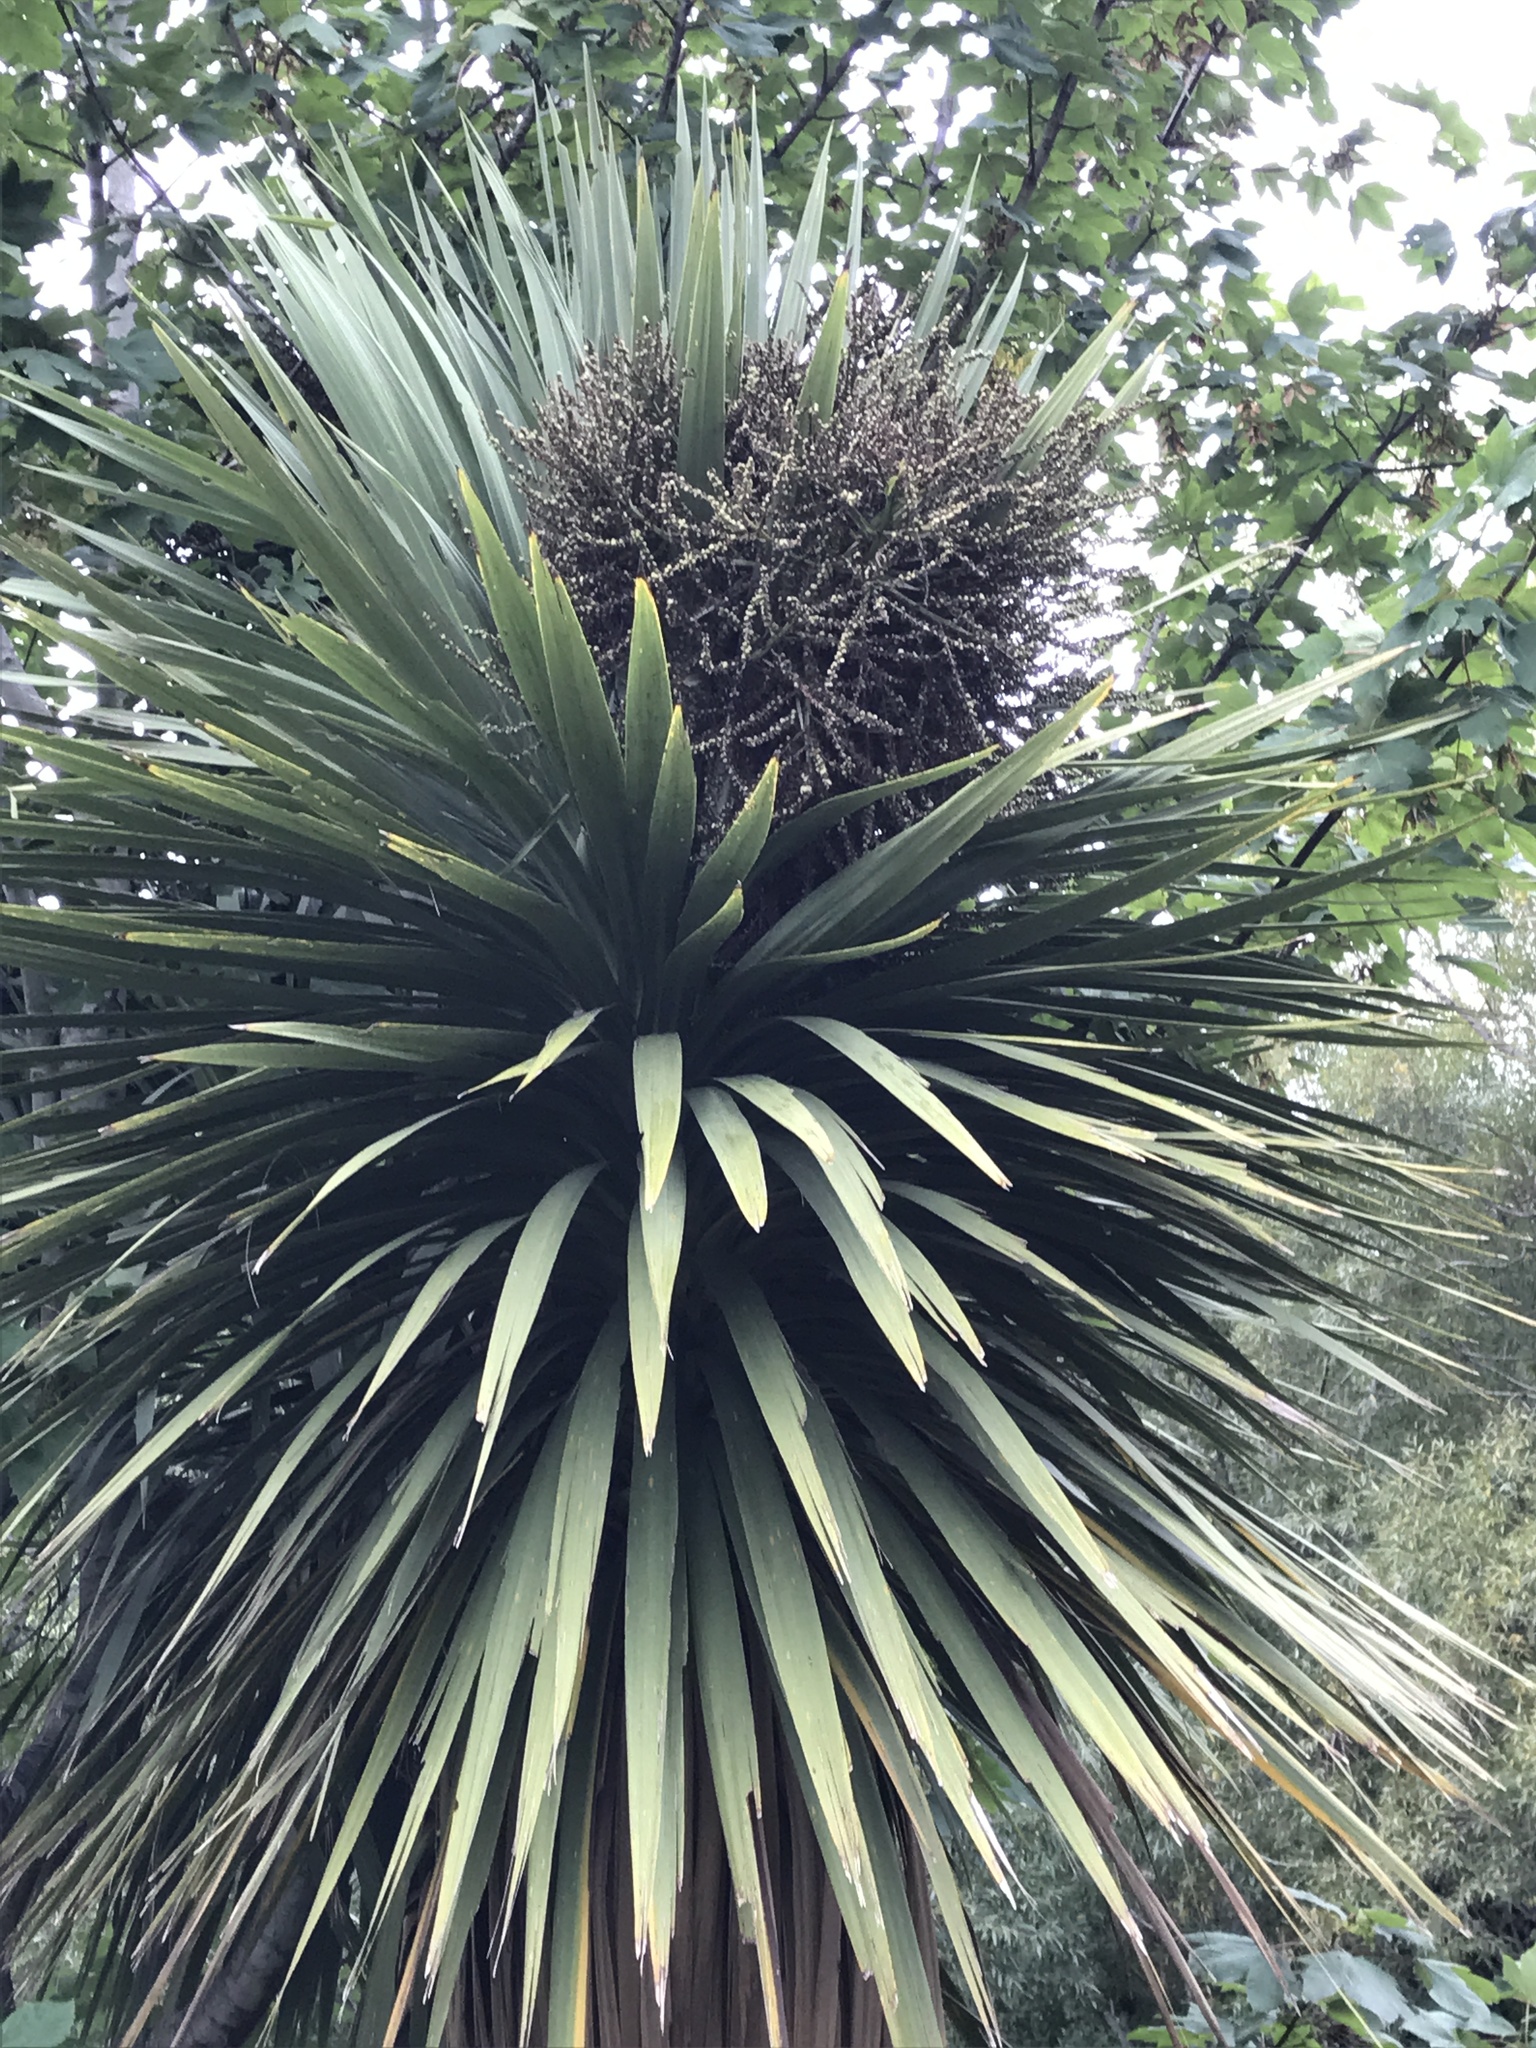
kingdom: Plantae
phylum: Tracheophyta
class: Liliopsida
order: Asparagales
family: Asparagaceae
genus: Cordyline
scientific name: Cordyline australis
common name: Cabbage-palm
